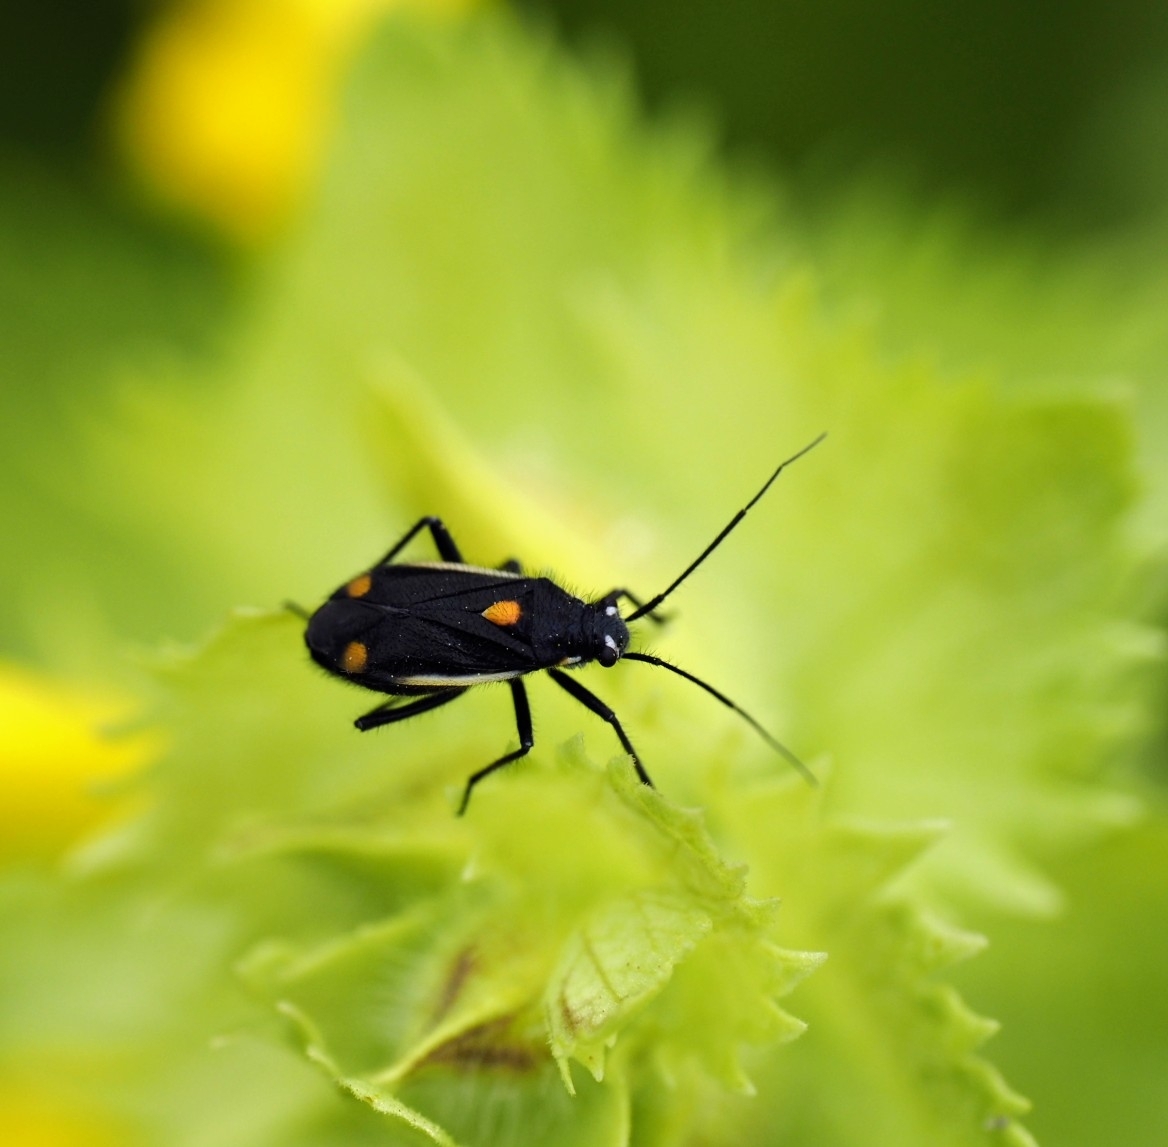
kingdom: Animalia
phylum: Arthropoda
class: Insecta
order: Hemiptera
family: Miridae
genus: Capsodes
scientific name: Capsodes gothicus
